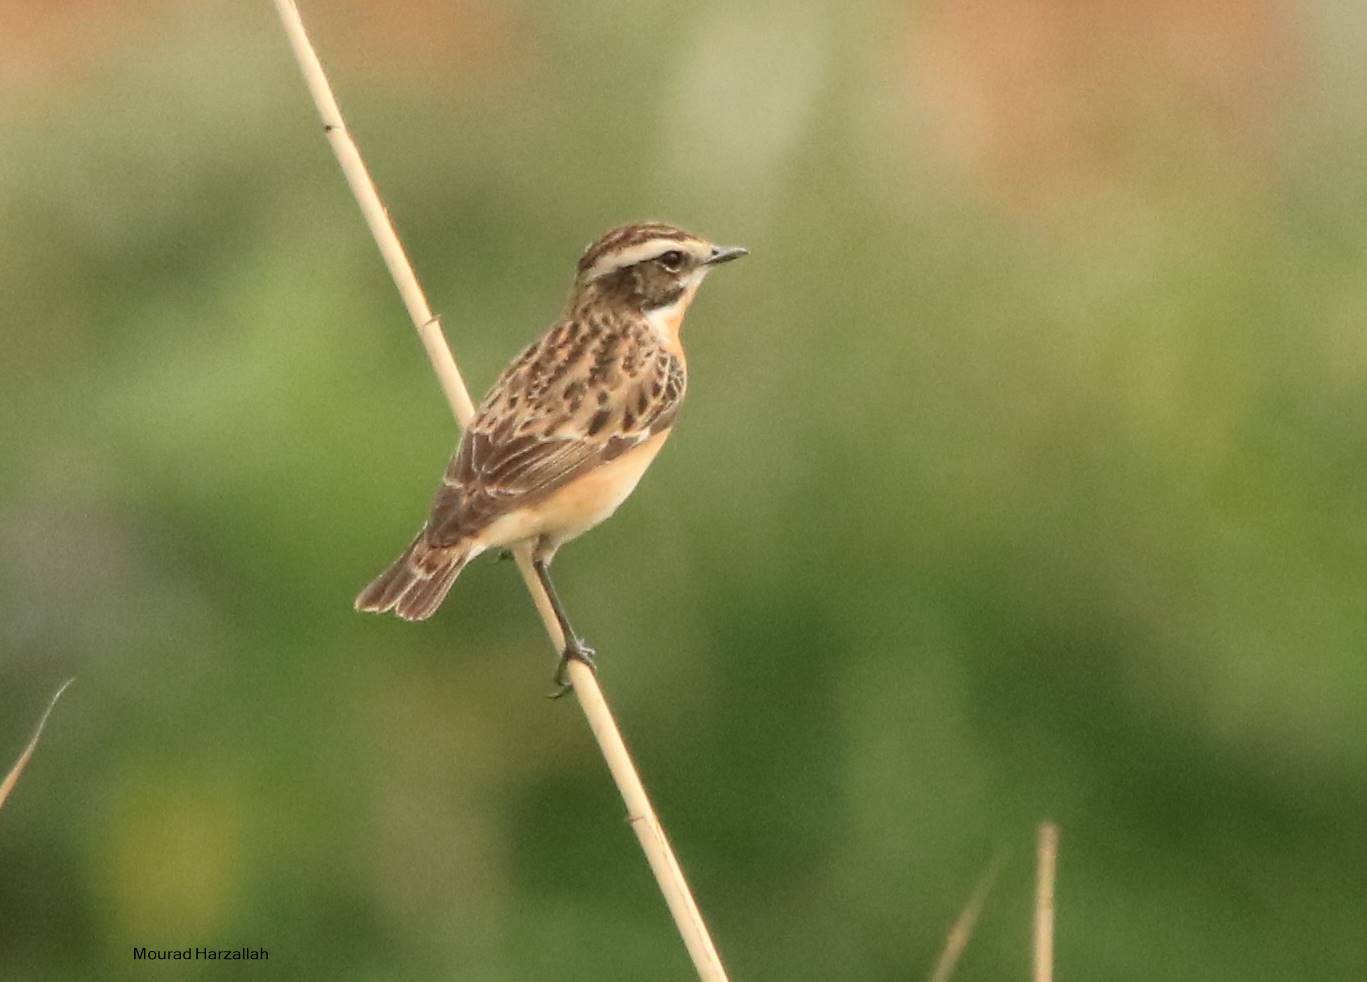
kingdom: Animalia
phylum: Chordata
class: Aves
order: Passeriformes
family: Muscicapidae
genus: Saxicola
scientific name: Saxicola rubetra
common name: Whinchat
